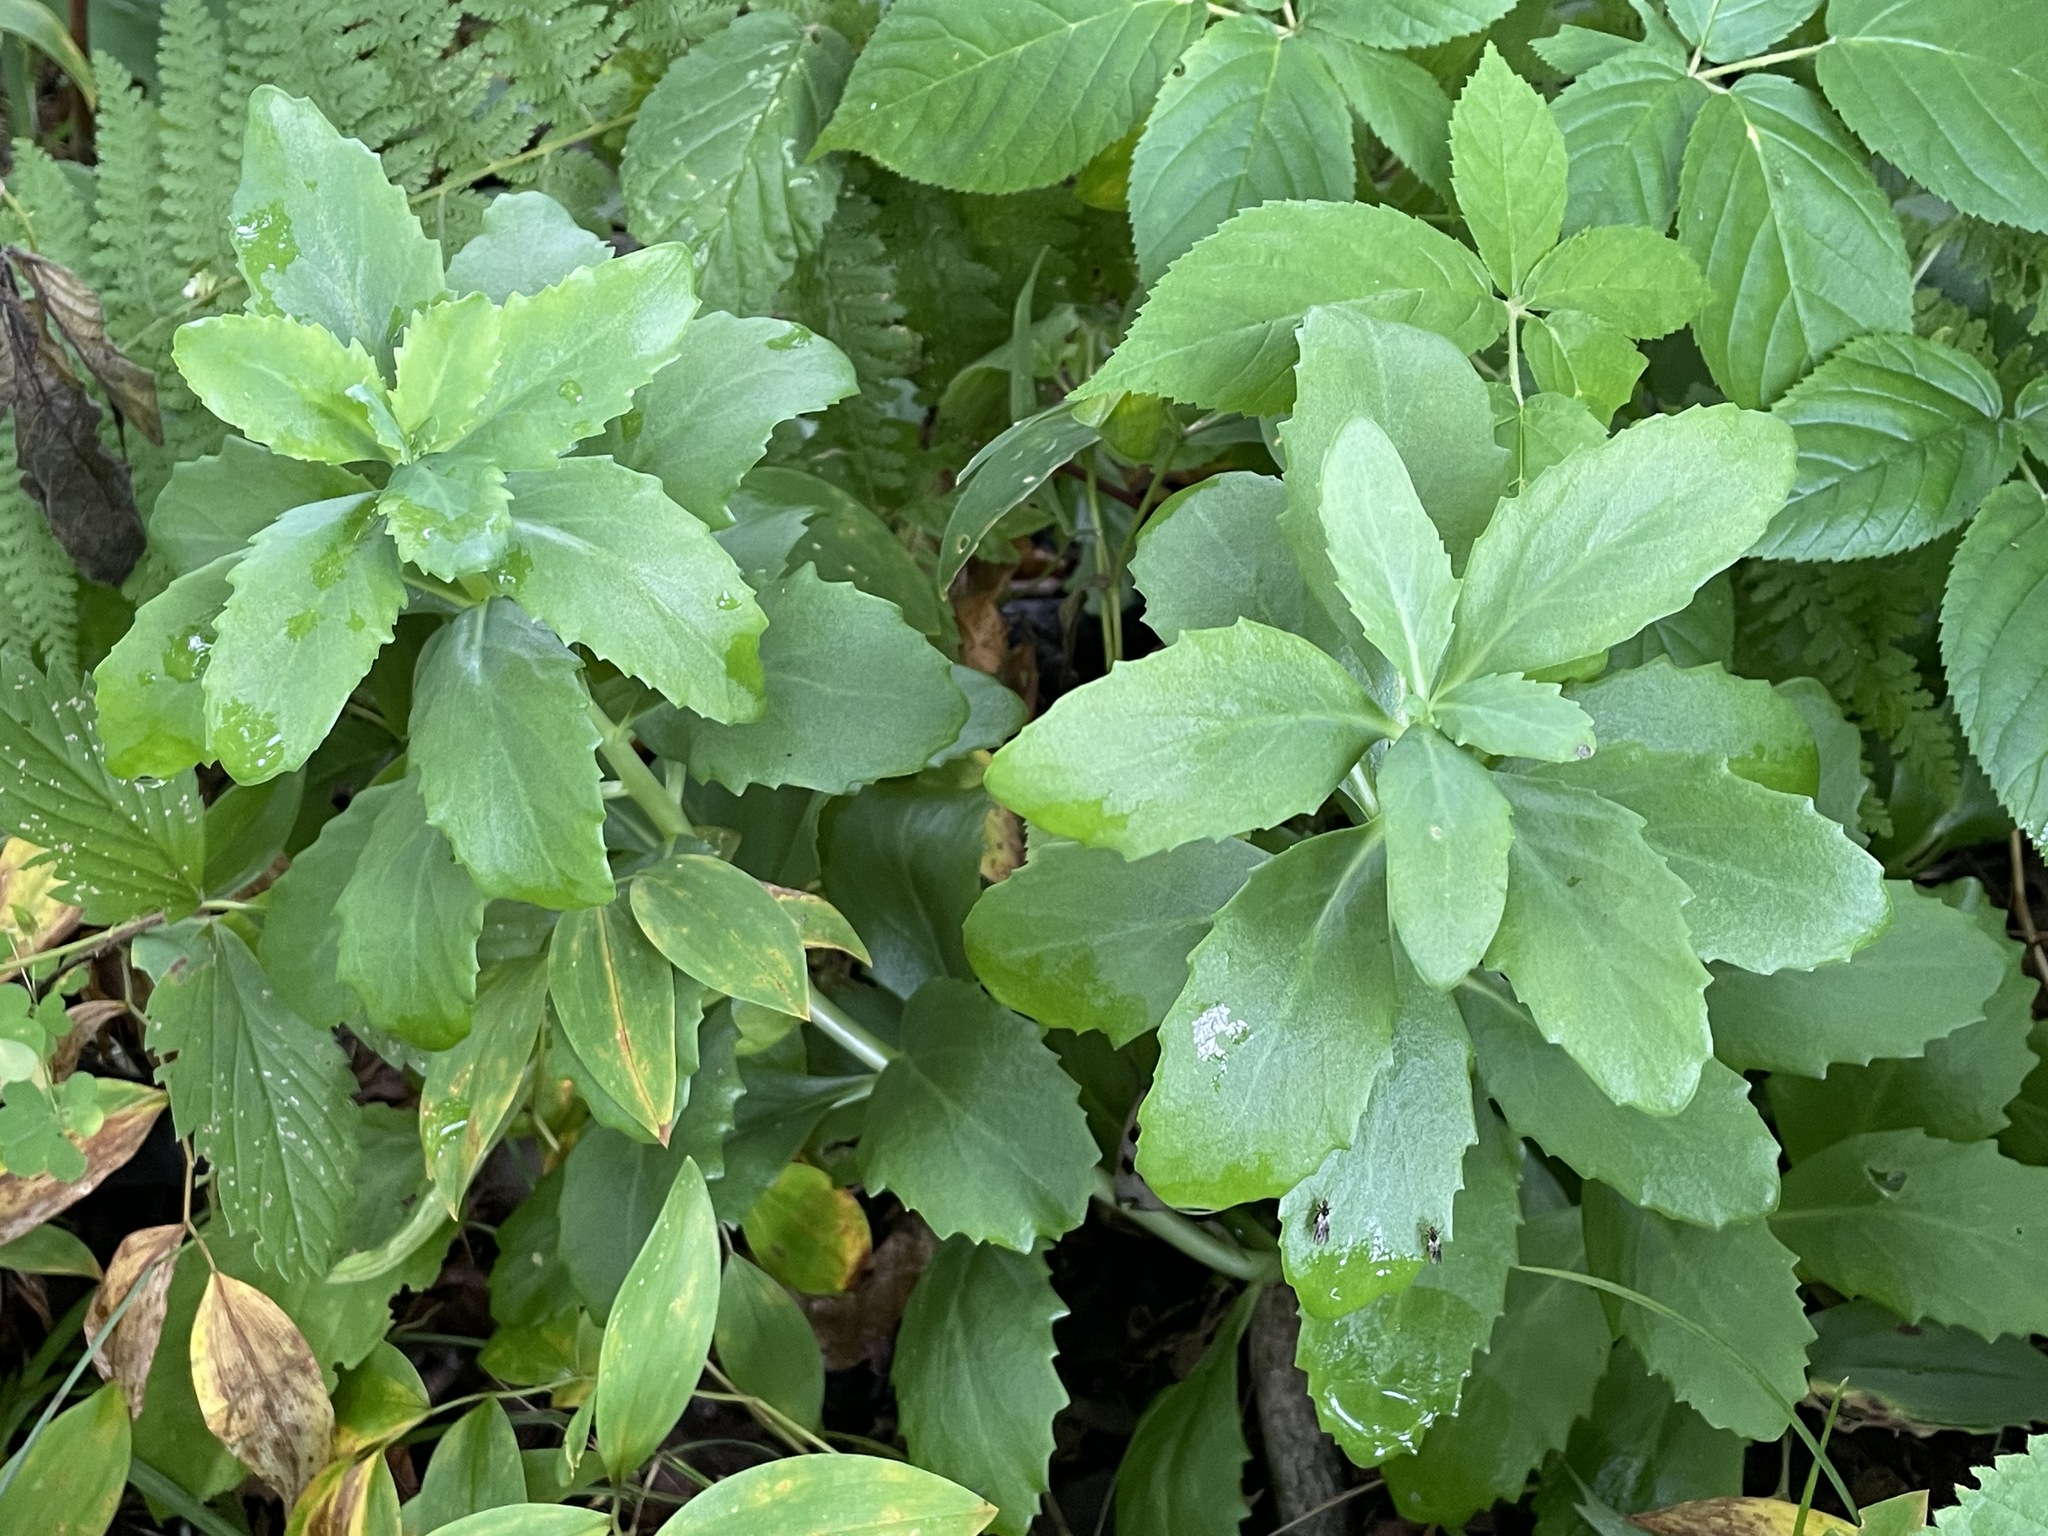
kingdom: Plantae
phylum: Tracheophyta
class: Magnoliopsida
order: Saxifragales
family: Crassulaceae
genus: Hylotelephium
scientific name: Hylotelephium telephium
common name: Live-forever
